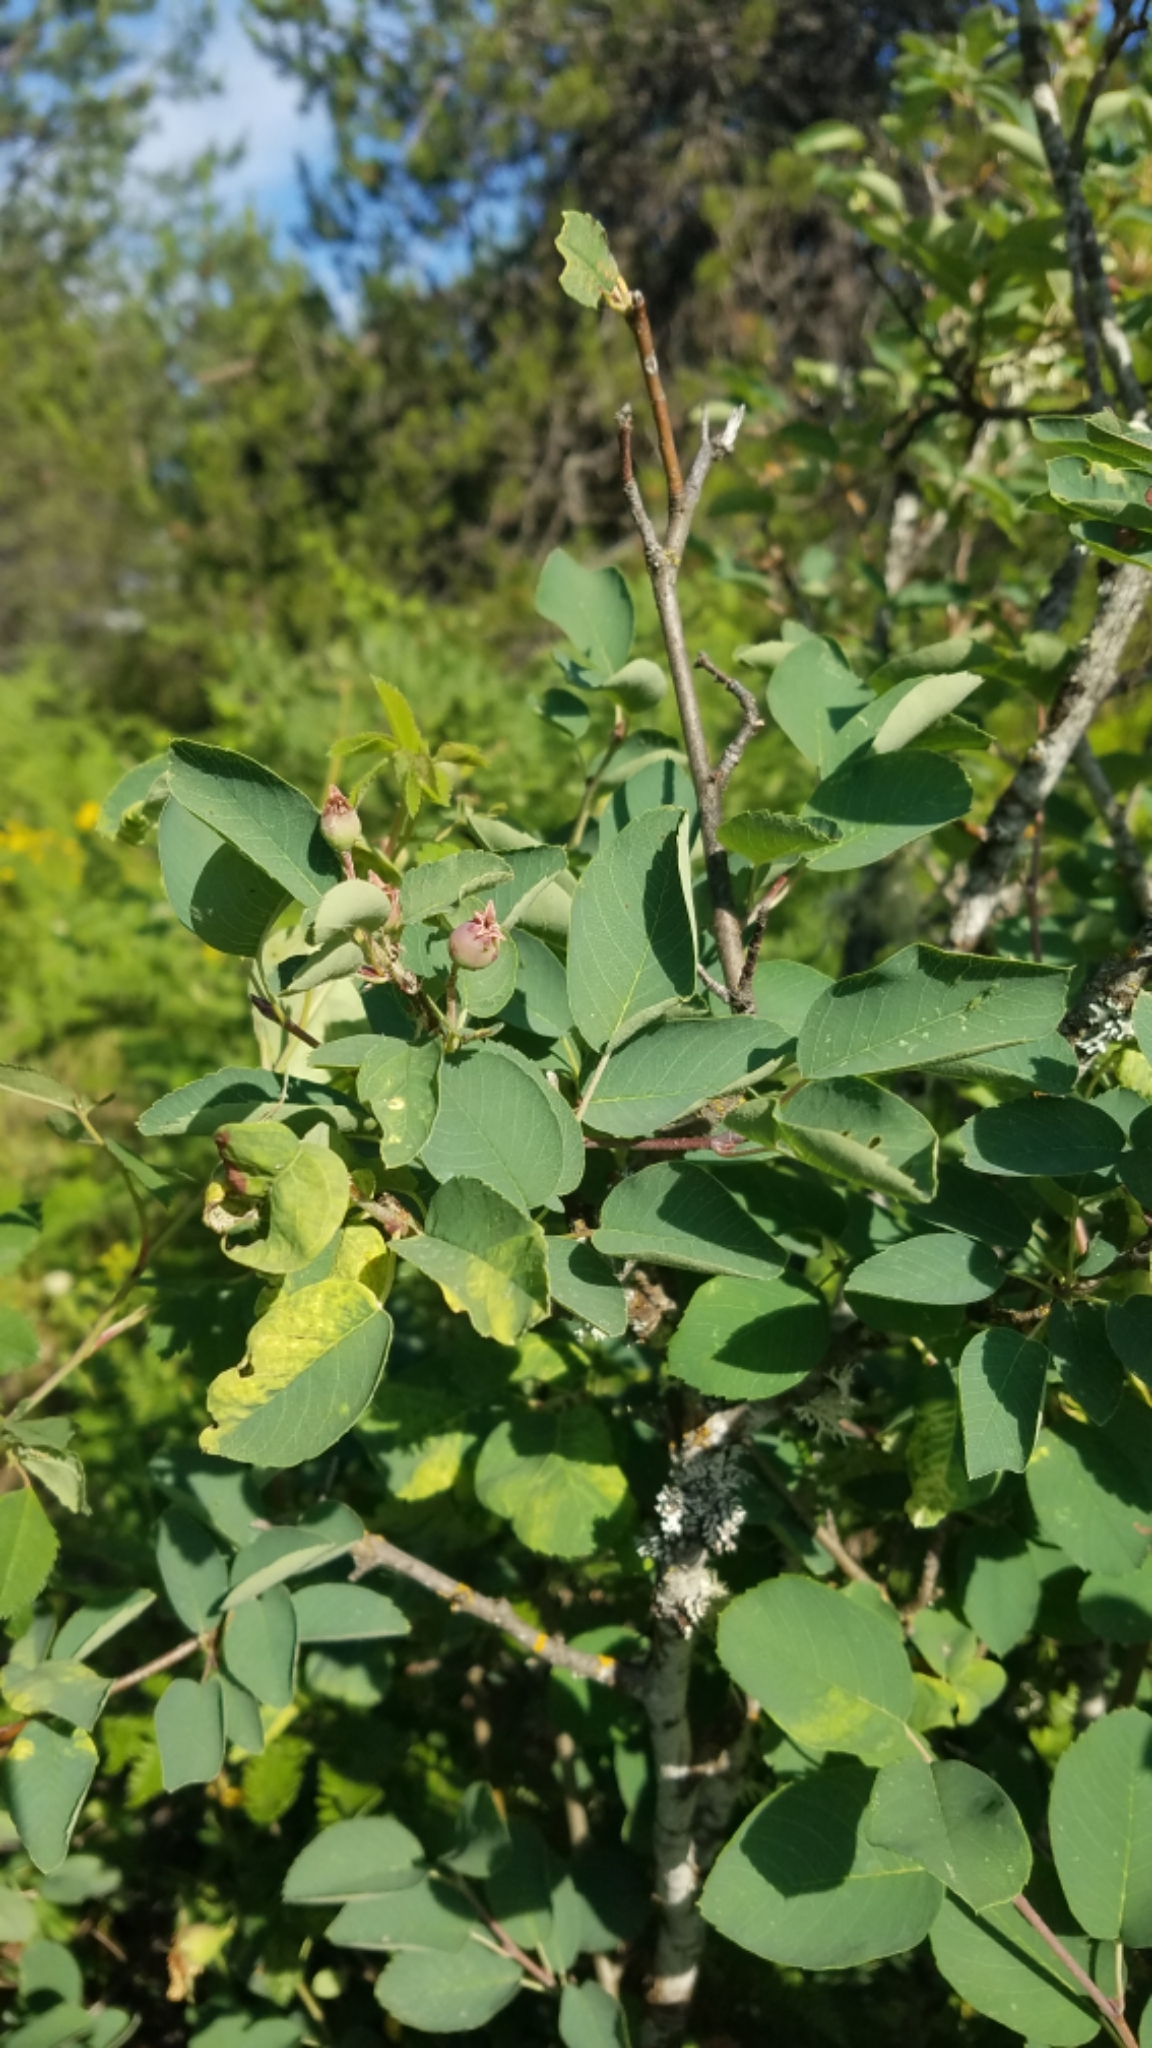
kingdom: Plantae
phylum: Tracheophyta
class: Magnoliopsida
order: Rosales
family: Rosaceae
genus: Amelanchier
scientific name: Amelanchier alnifolia
